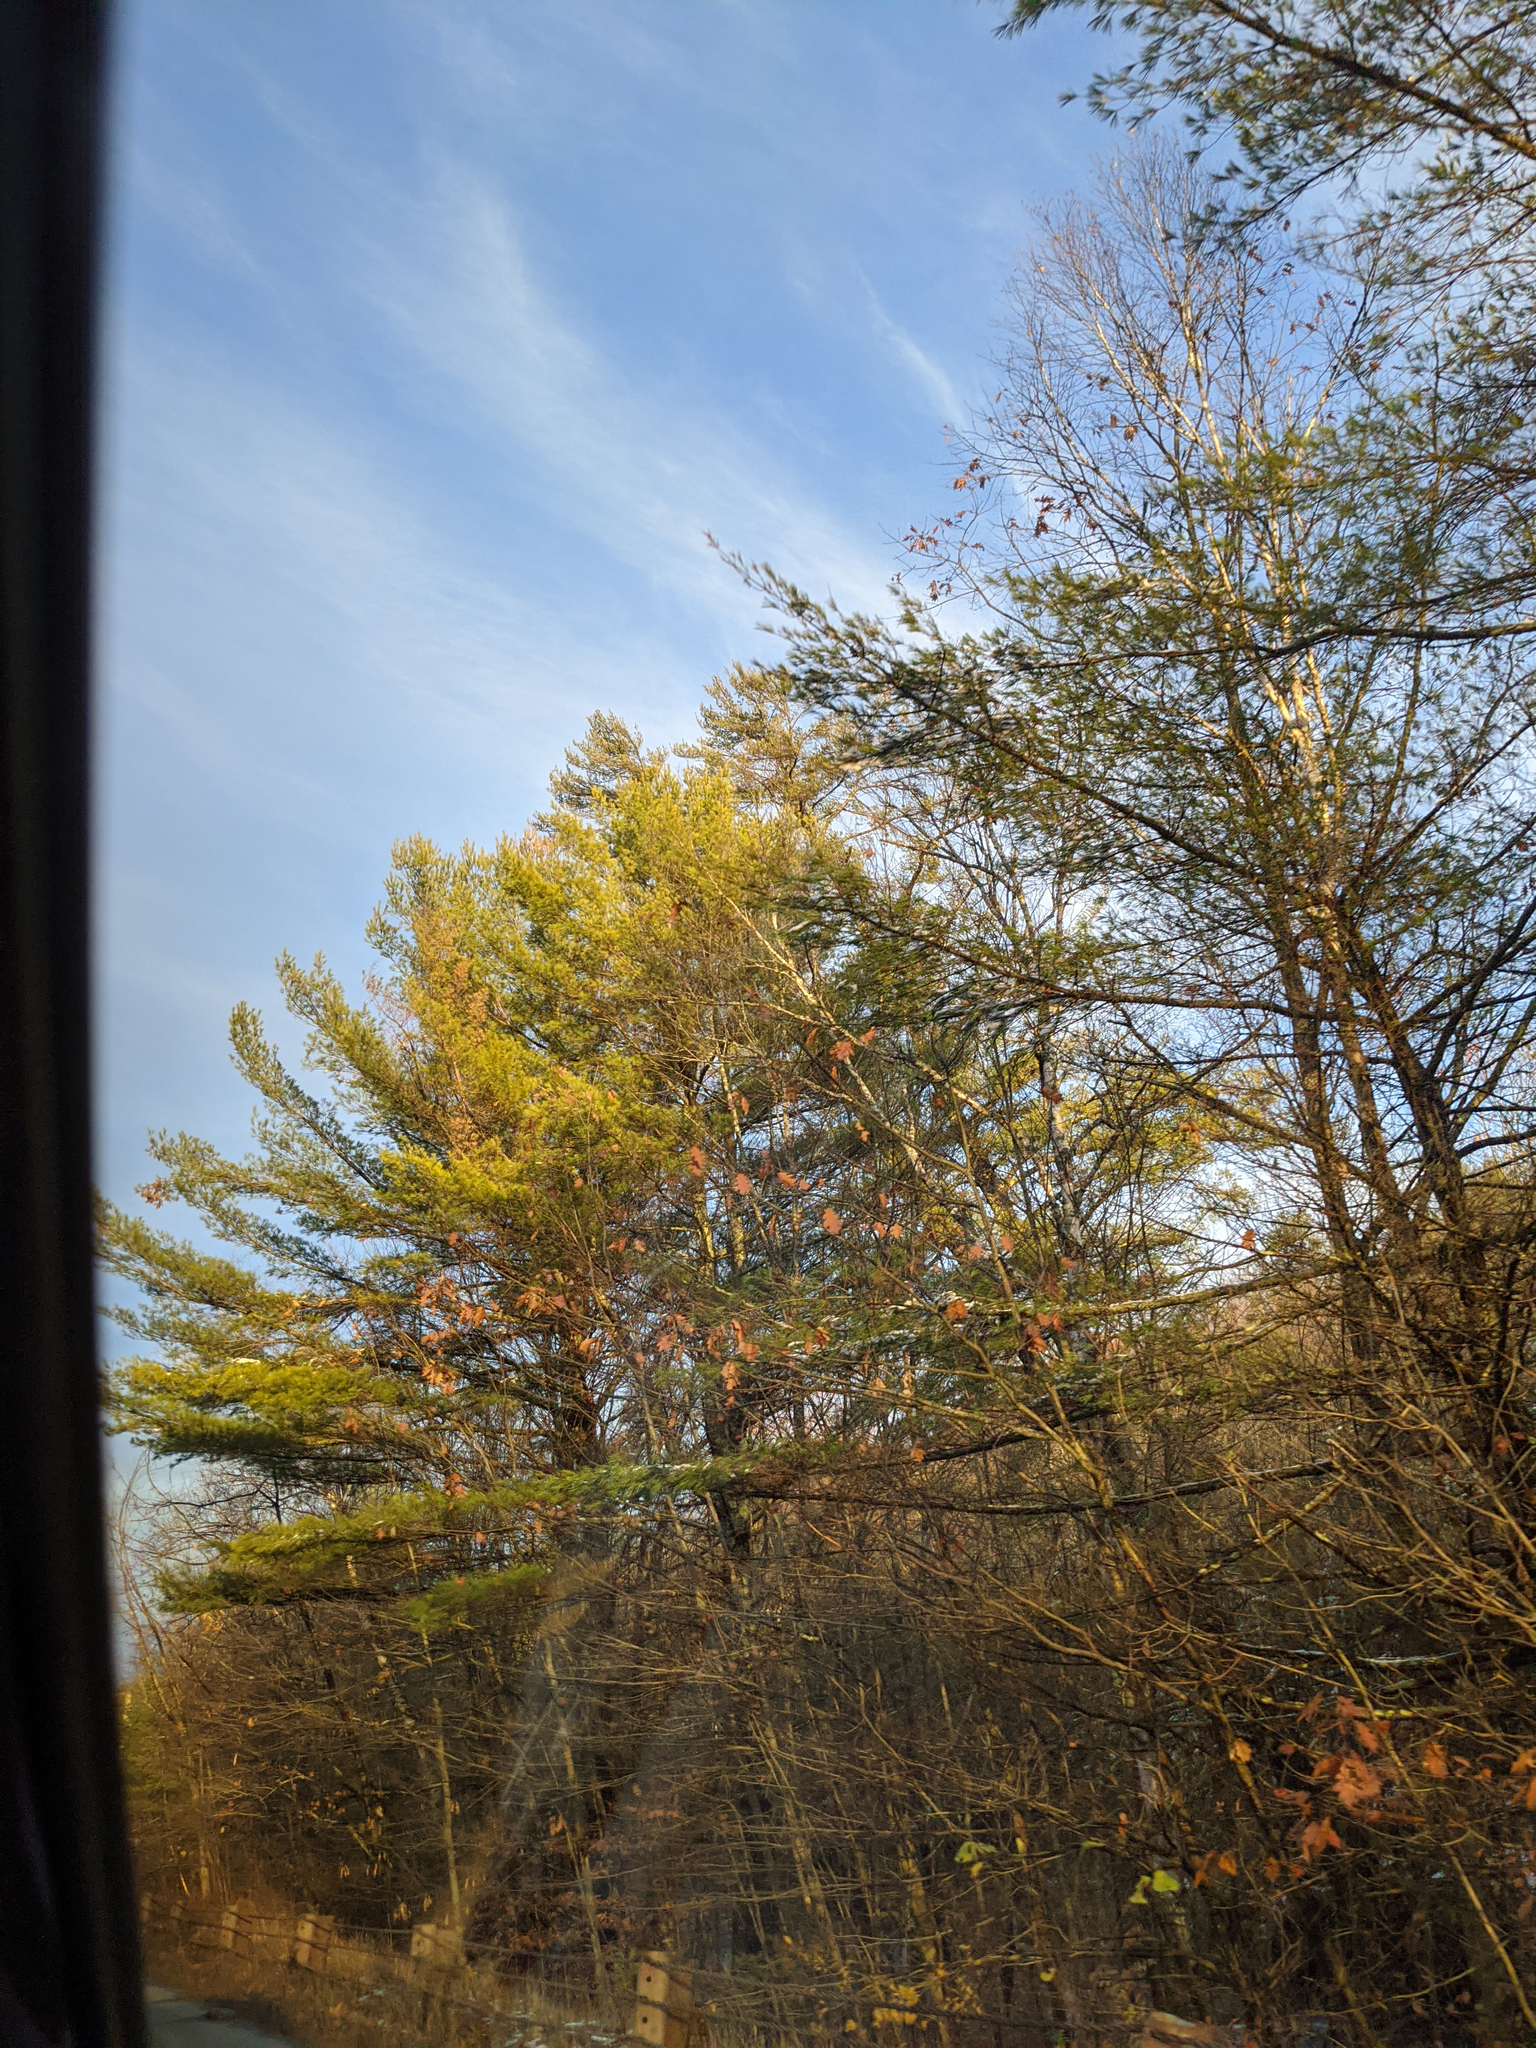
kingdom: Plantae
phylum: Tracheophyta
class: Pinopsida
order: Pinales
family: Pinaceae
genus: Pinus
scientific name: Pinus strobus
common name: Weymouth pine
